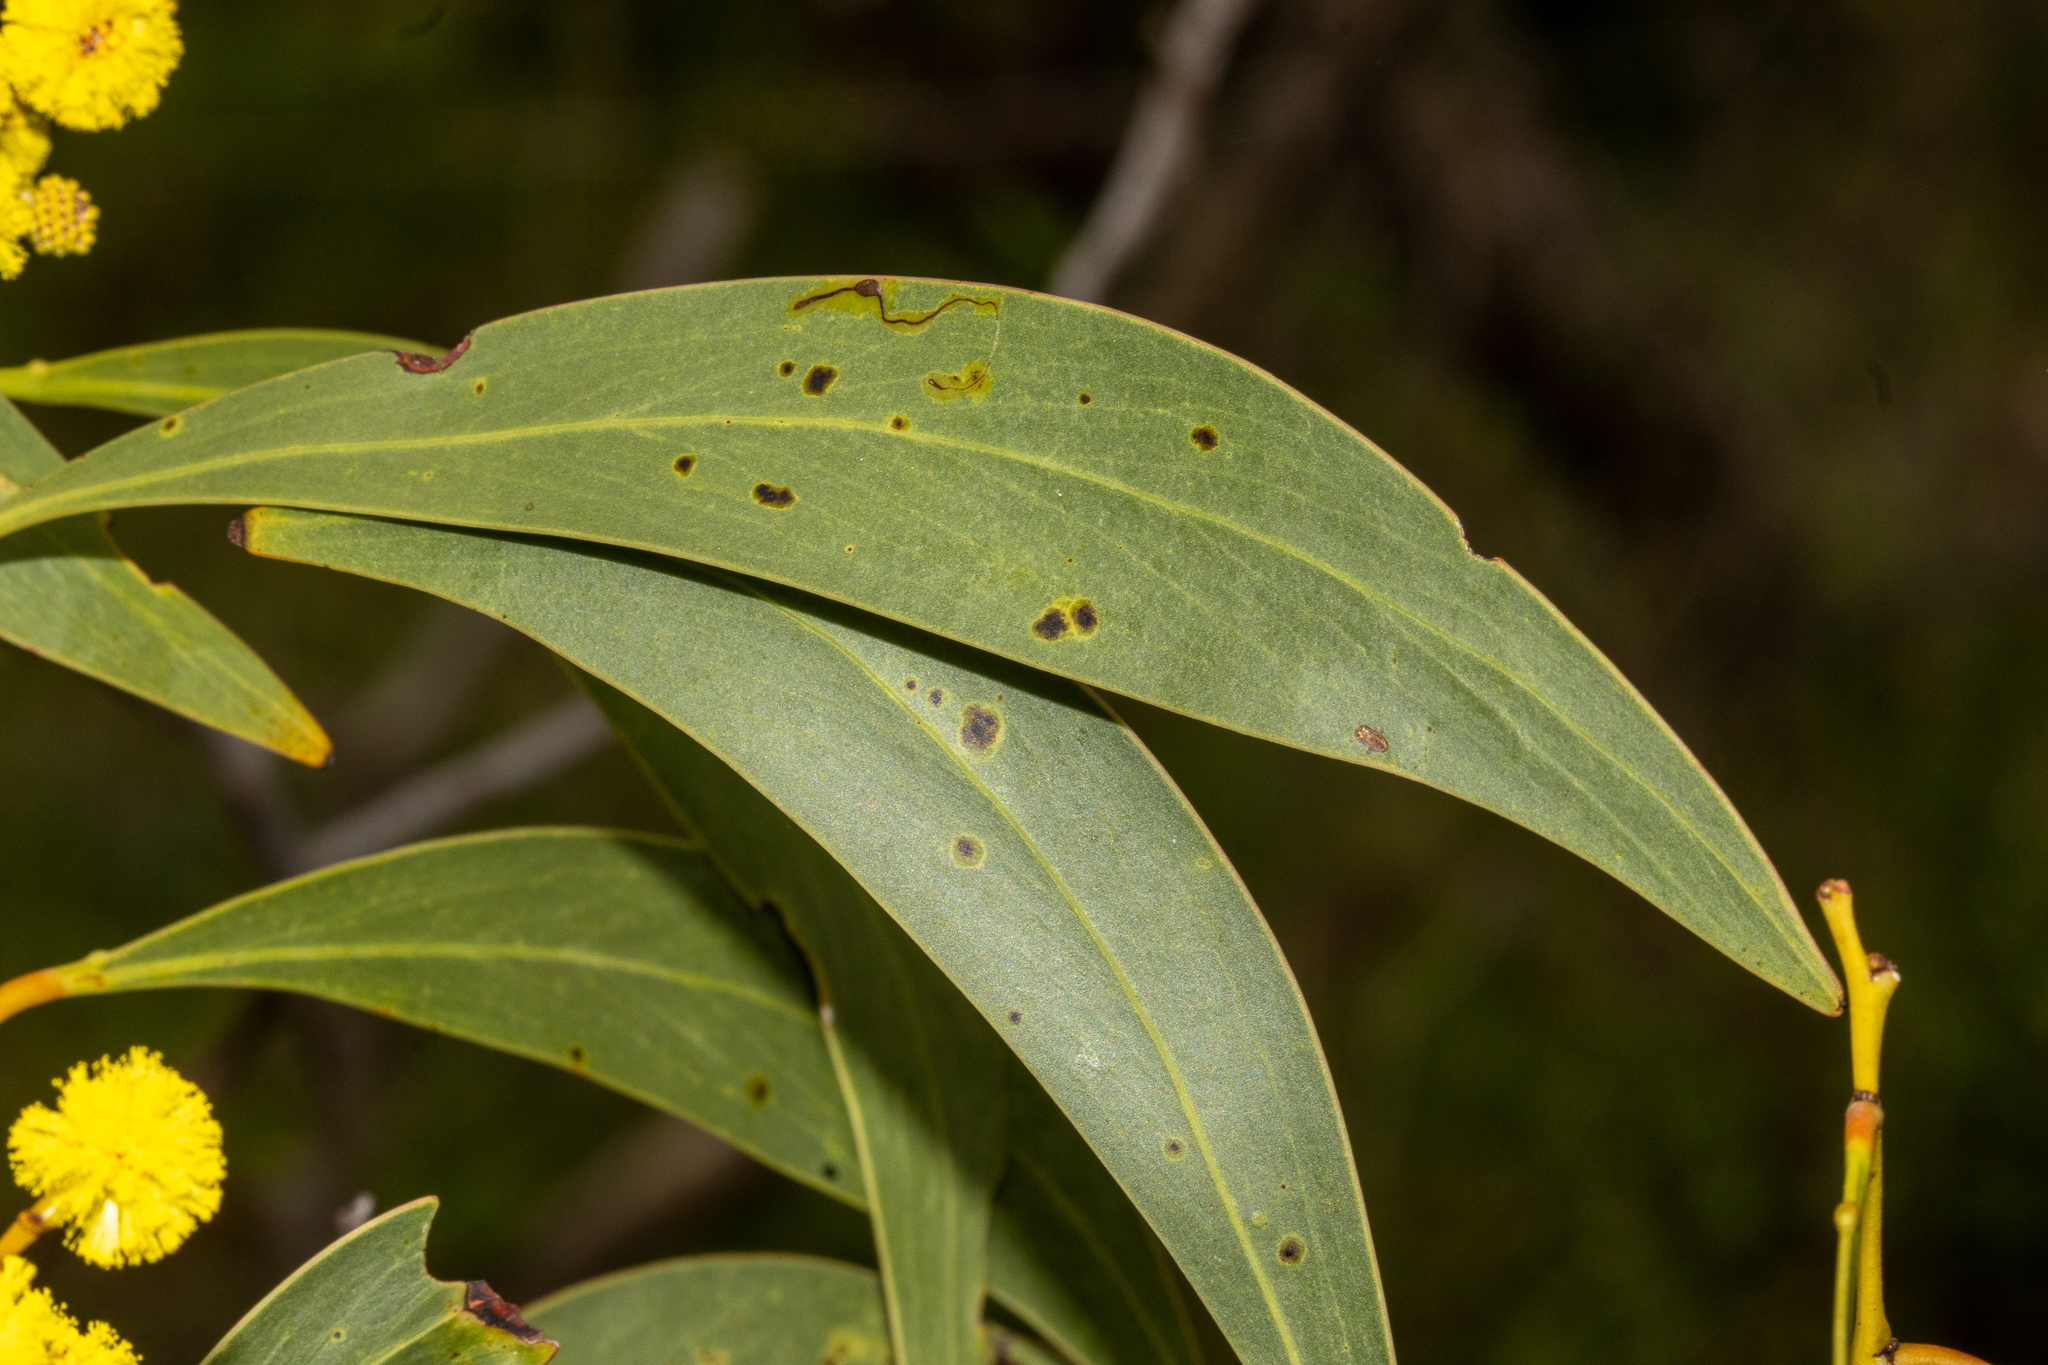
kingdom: Plantae
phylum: Tracheophyta
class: Magnoliopsida
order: Fabales
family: Fabaceae
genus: Acacia
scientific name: Acacia pycnantha
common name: Golden wattle
